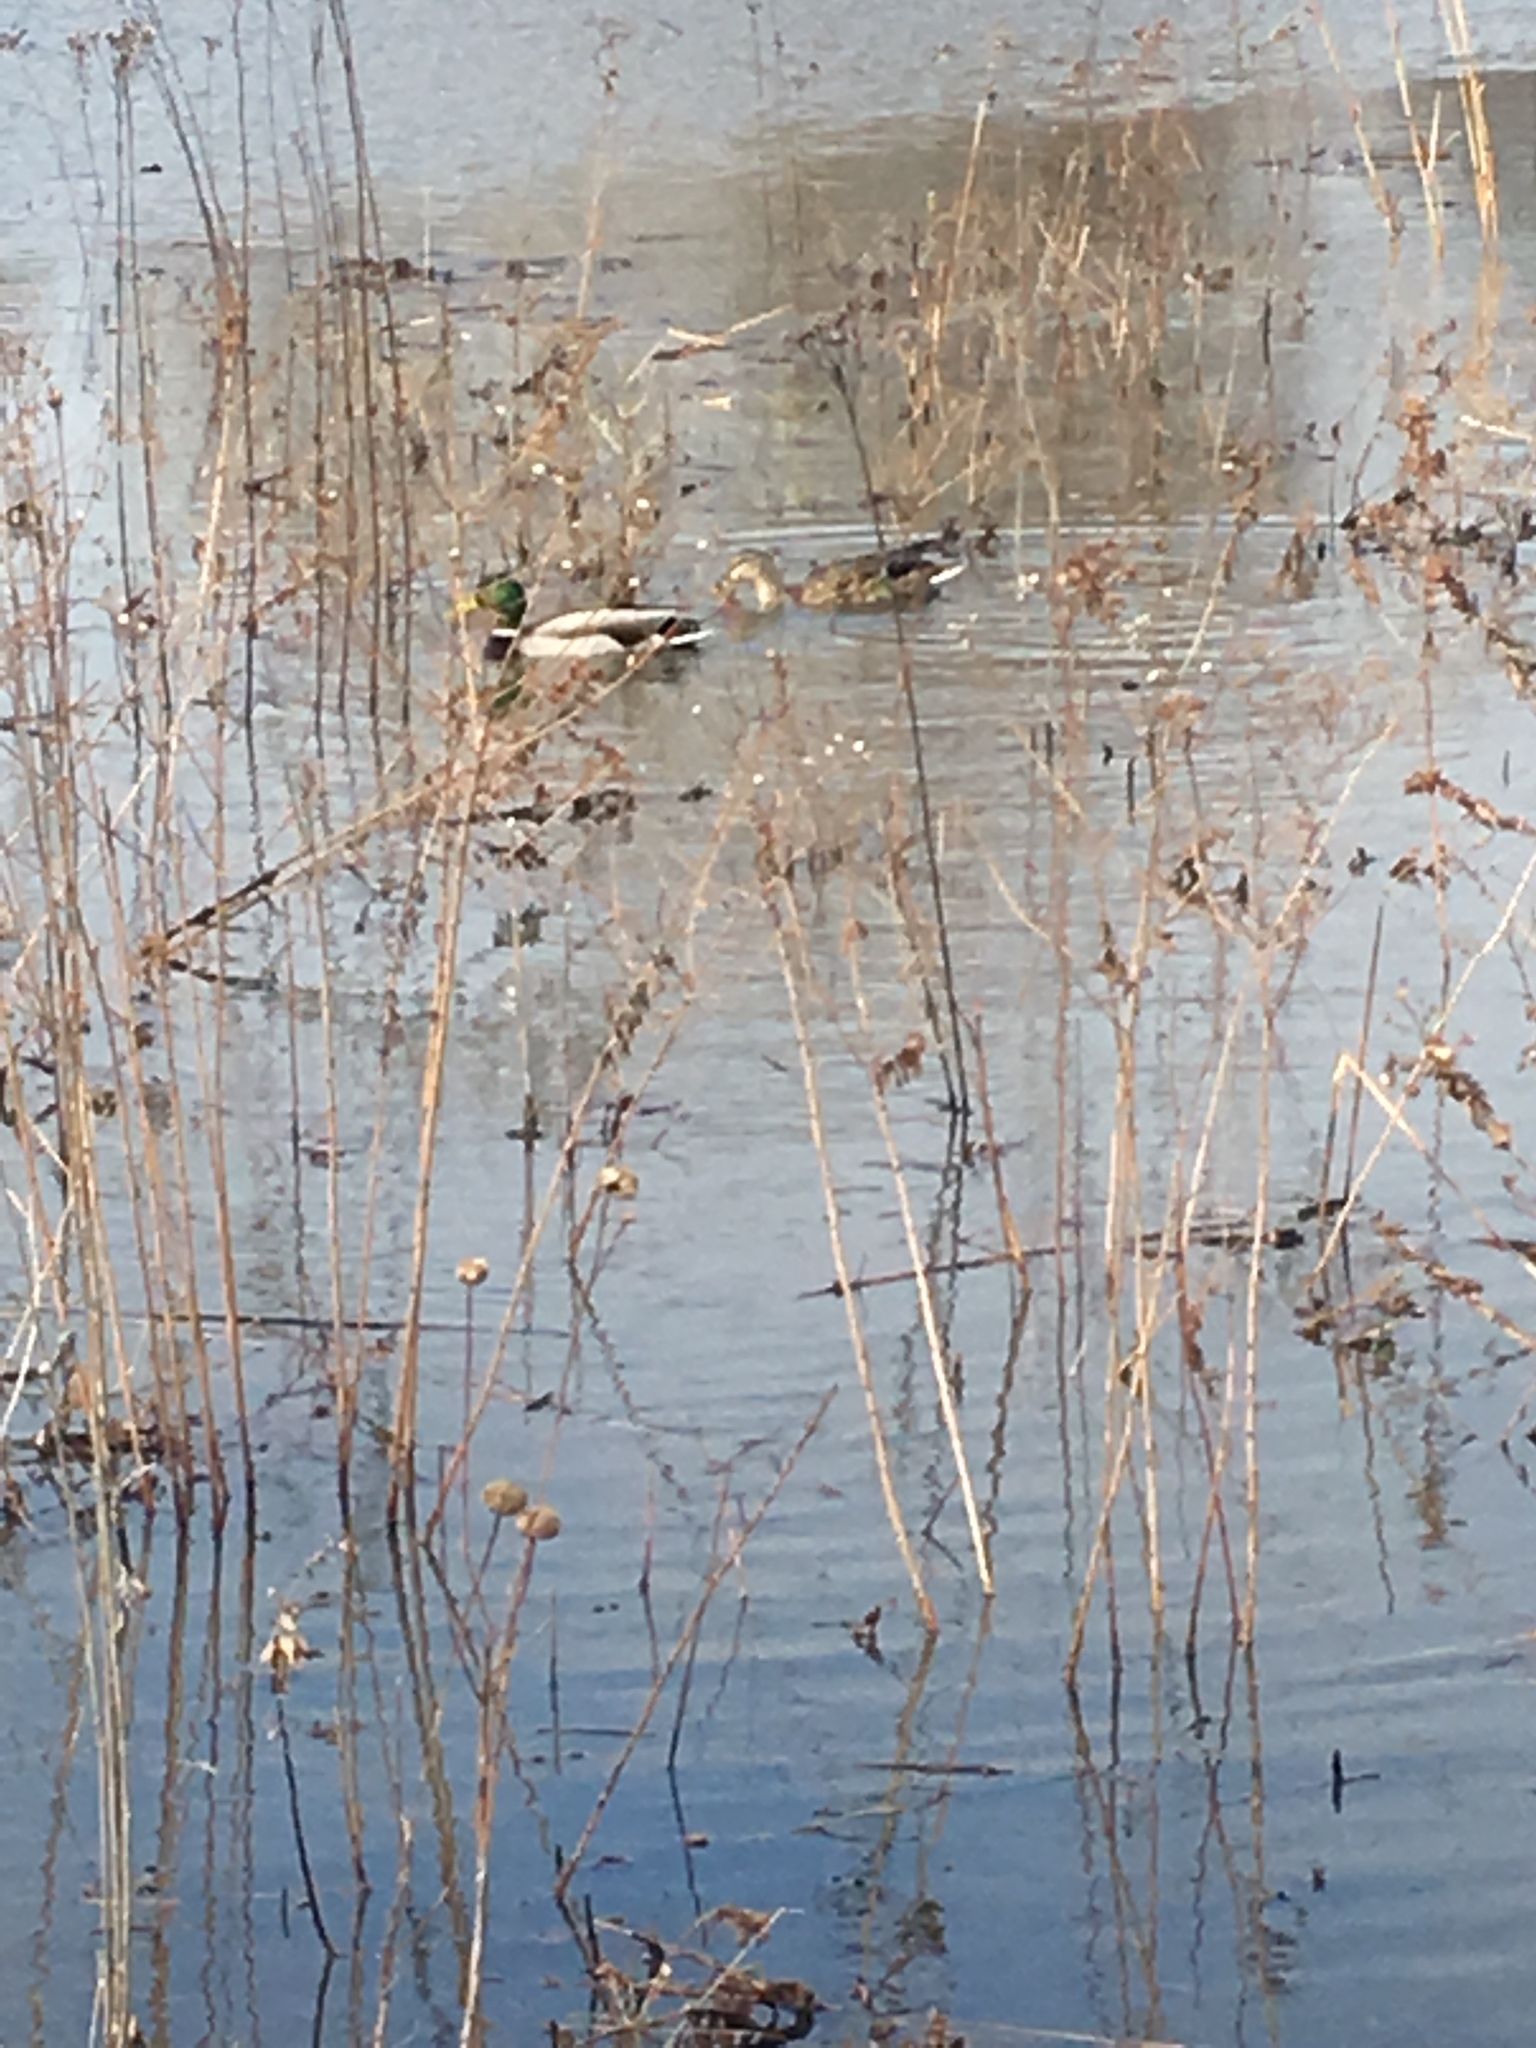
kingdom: Animalia
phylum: Chordata
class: Aves
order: Anseriformes
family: Anatidae
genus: Anas
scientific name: Anas platyrhynchos
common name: Mallard
